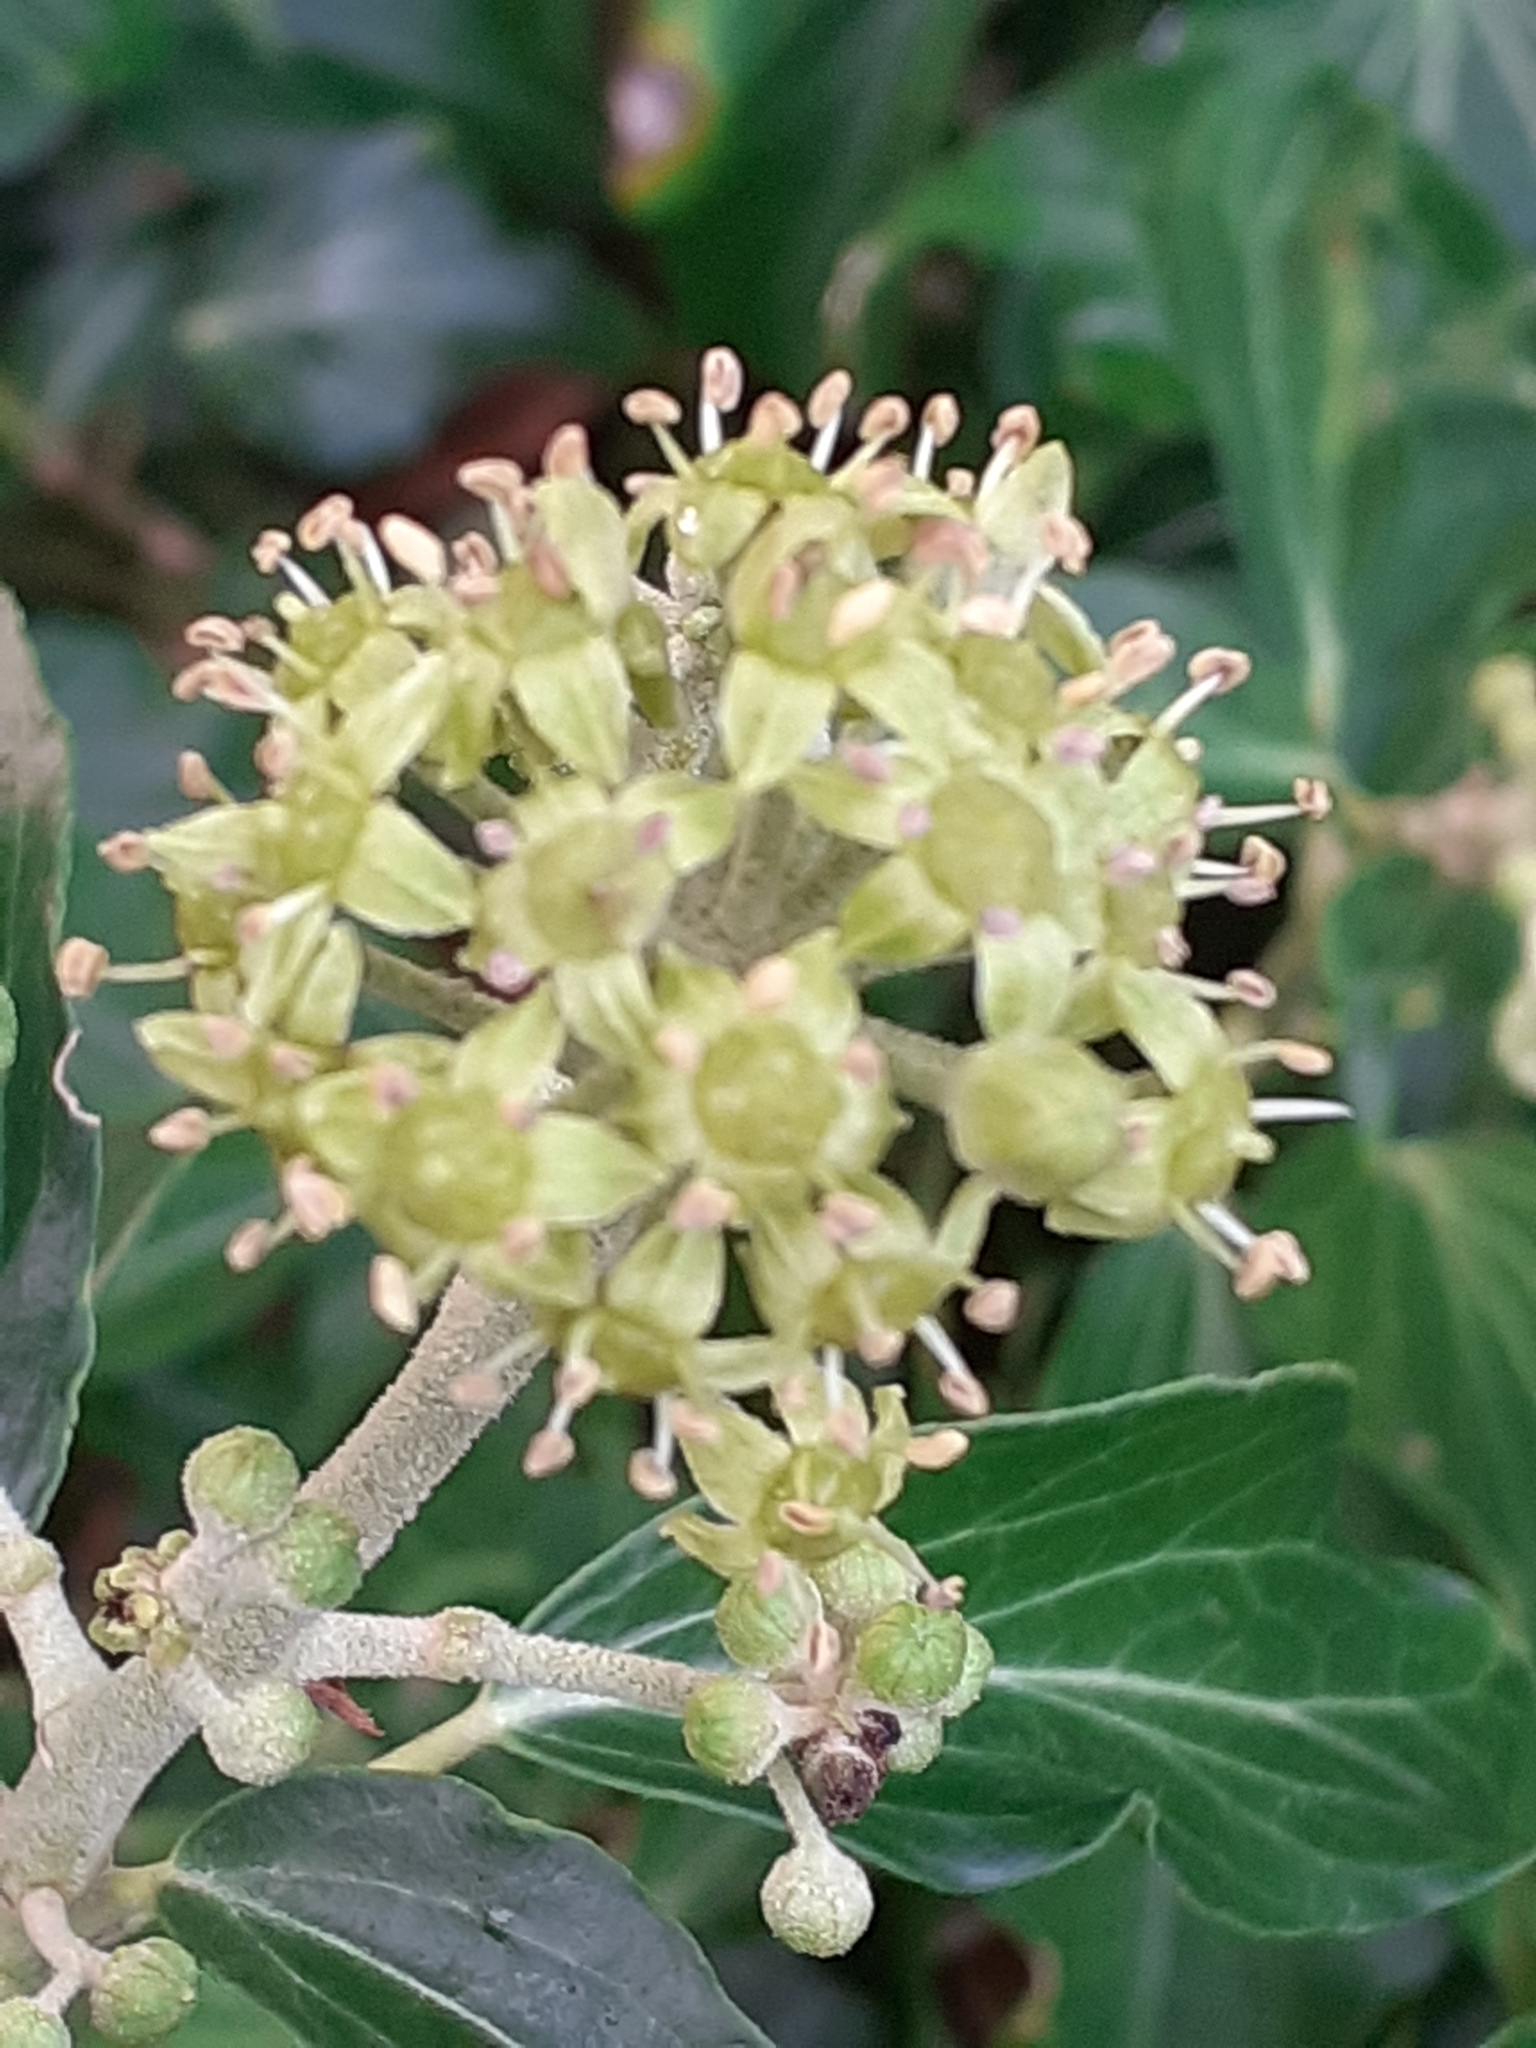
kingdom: Plantae
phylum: Tracheophyta
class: Magnoliopsida
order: Apiales
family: Araliaceae
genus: Hedera
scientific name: Hedera helix
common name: Ivy
